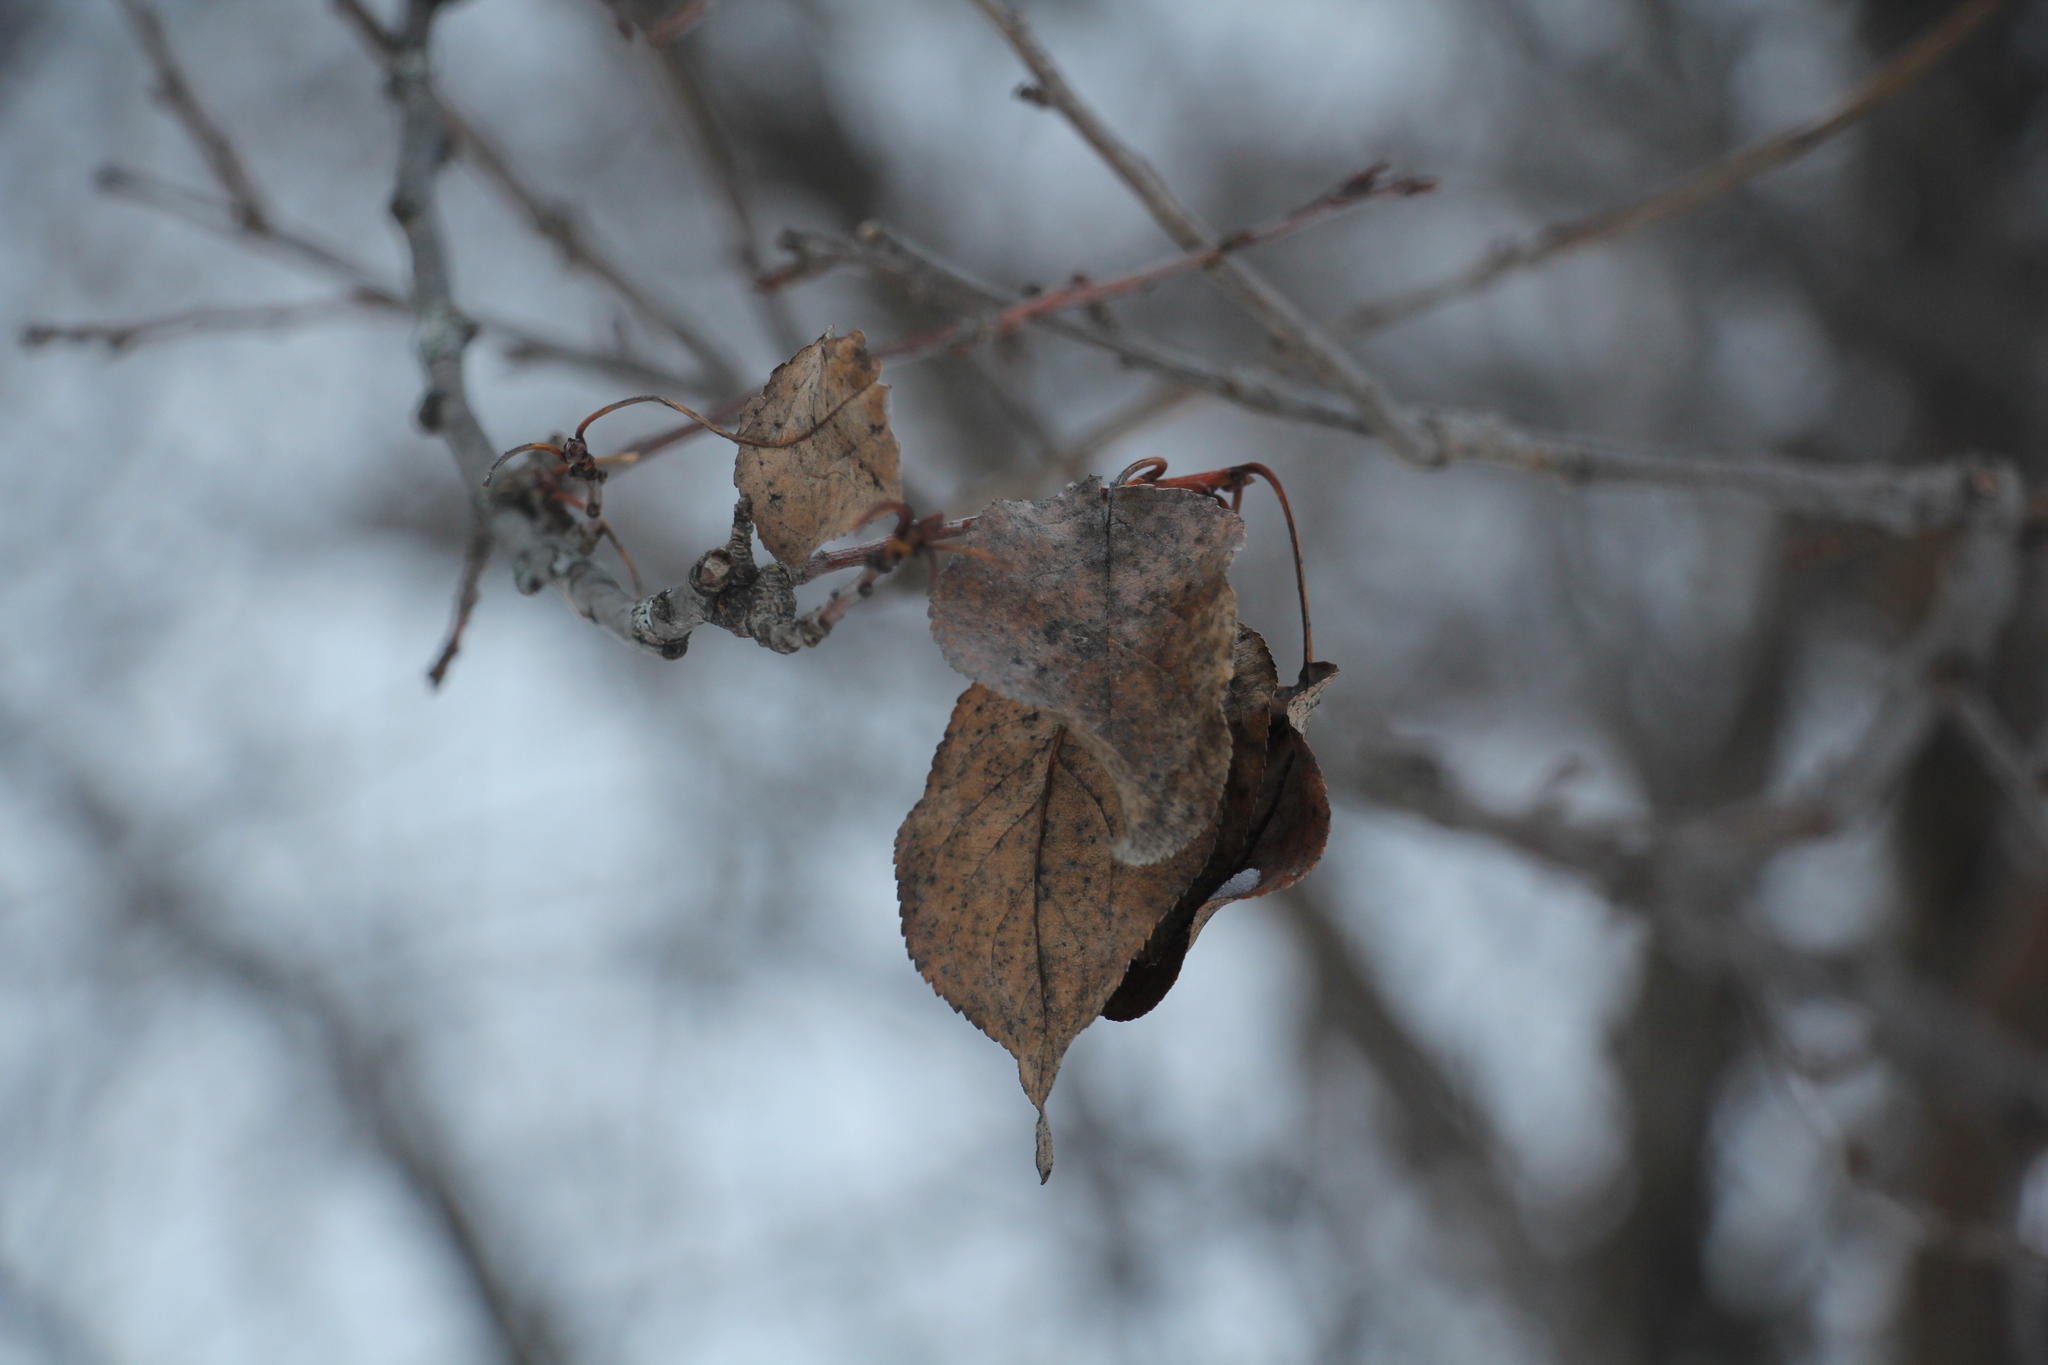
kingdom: Plantae
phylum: Tracheophyta
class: Magnoliopsida
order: Rosales
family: Rosaceae
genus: Malus
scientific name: Malus baccata
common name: Siberian crab
